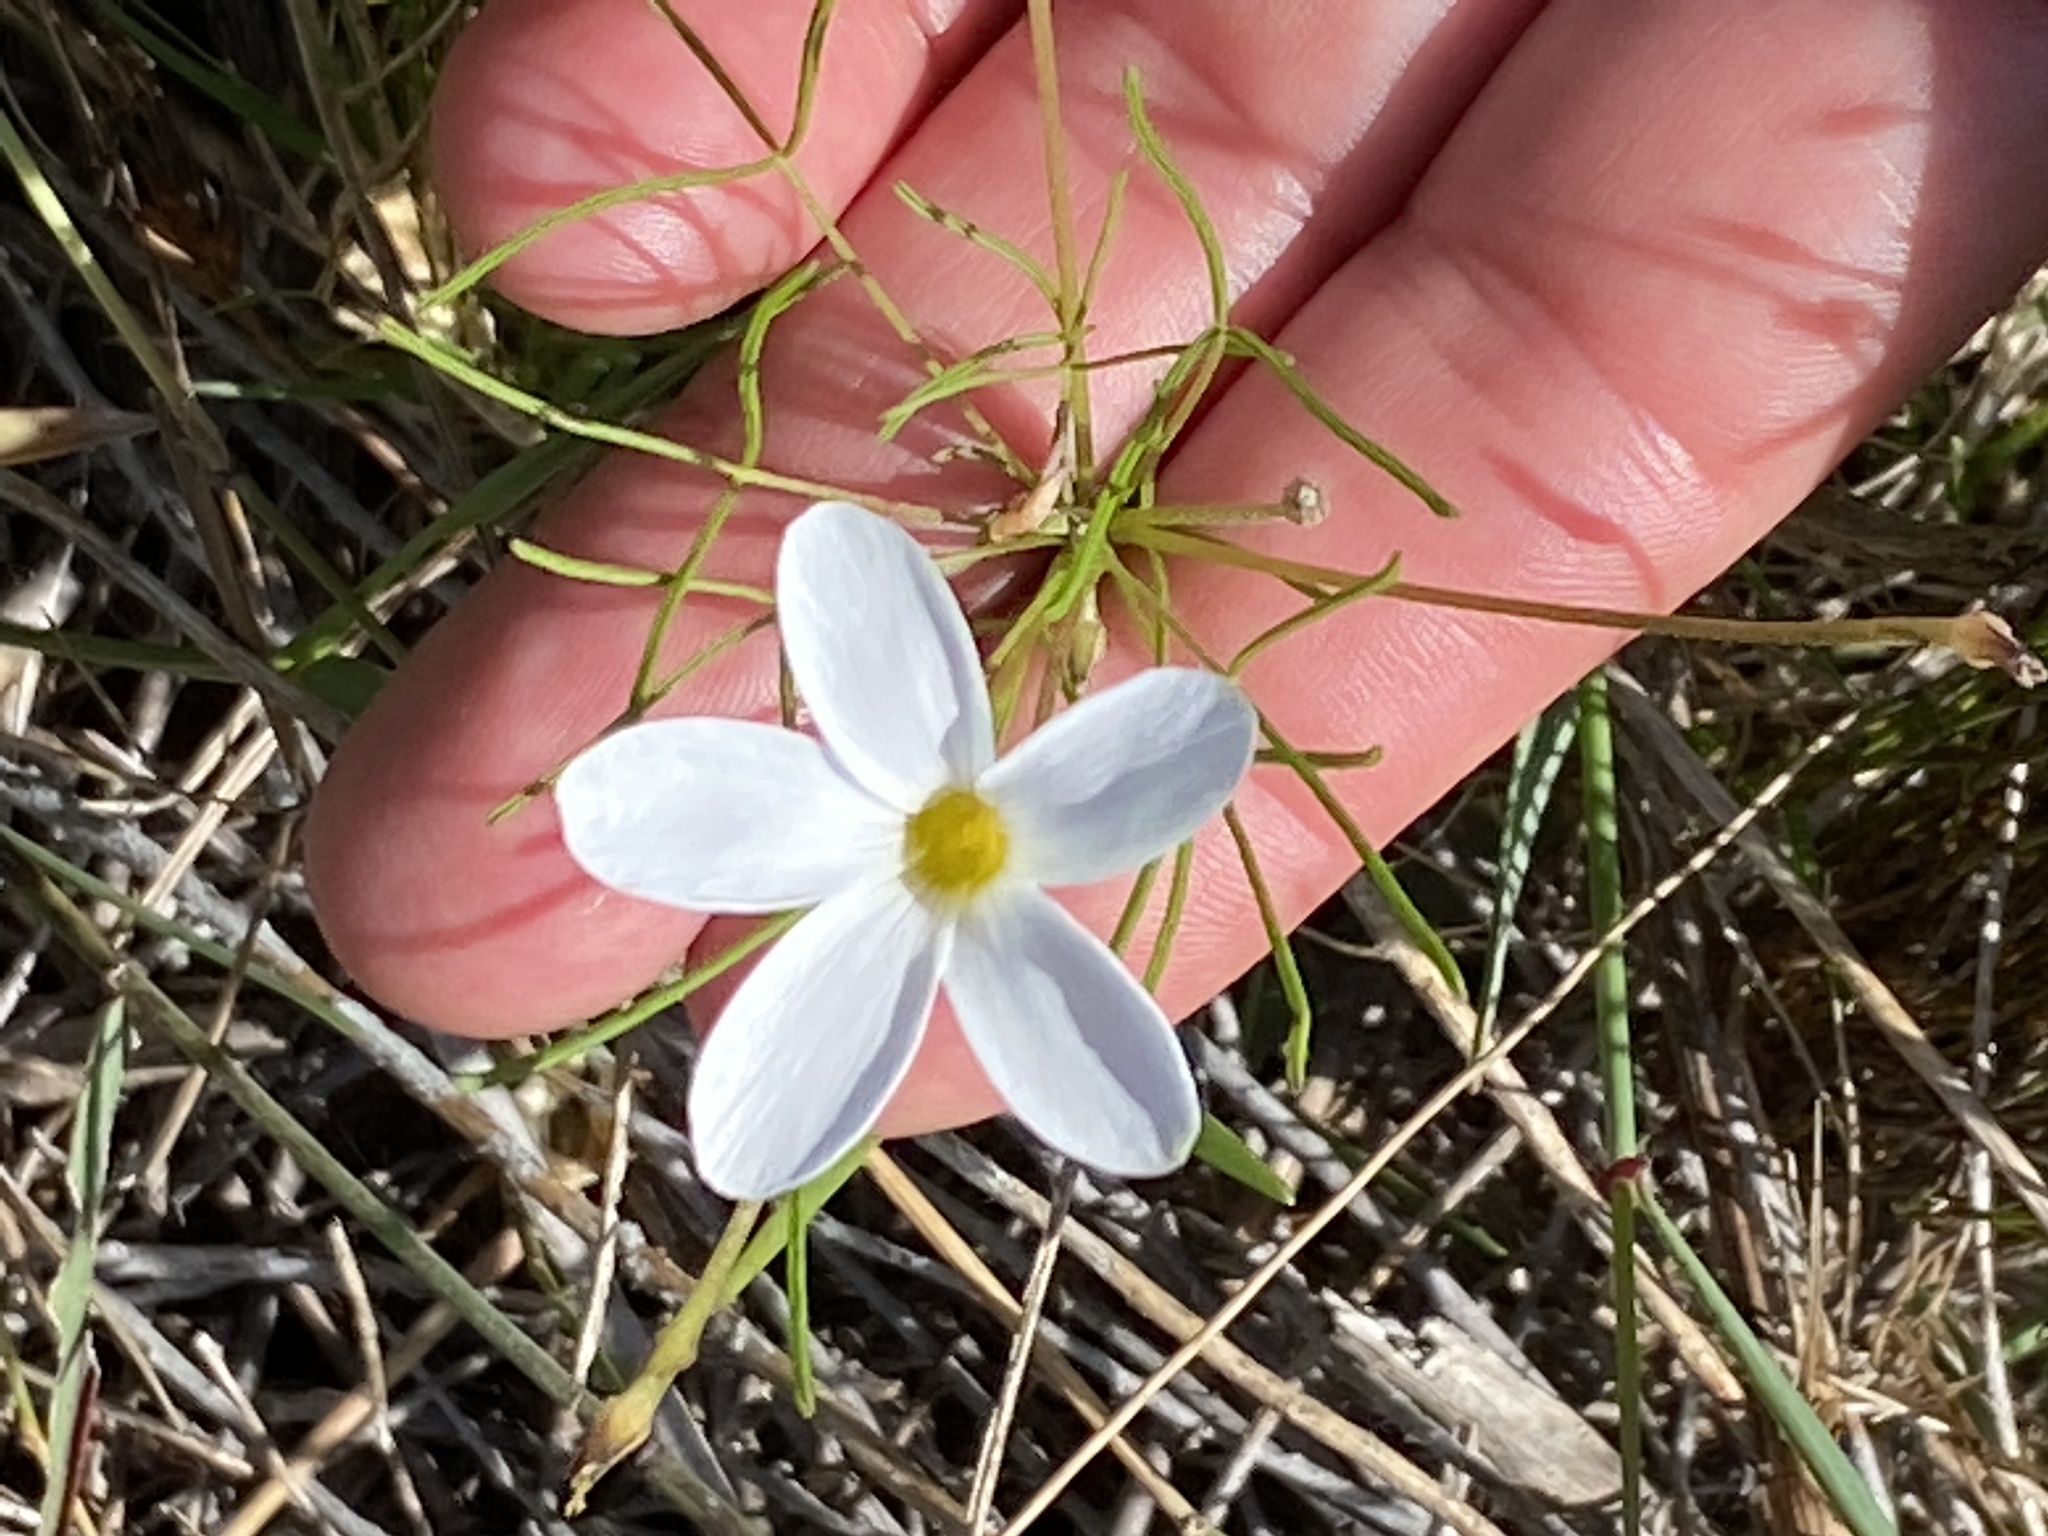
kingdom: Plantae
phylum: Tracheophyta
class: Magnoliopsida
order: Oxalidales
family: Oxalidaceae
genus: Oxalis
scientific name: Oxalis polyphylla
